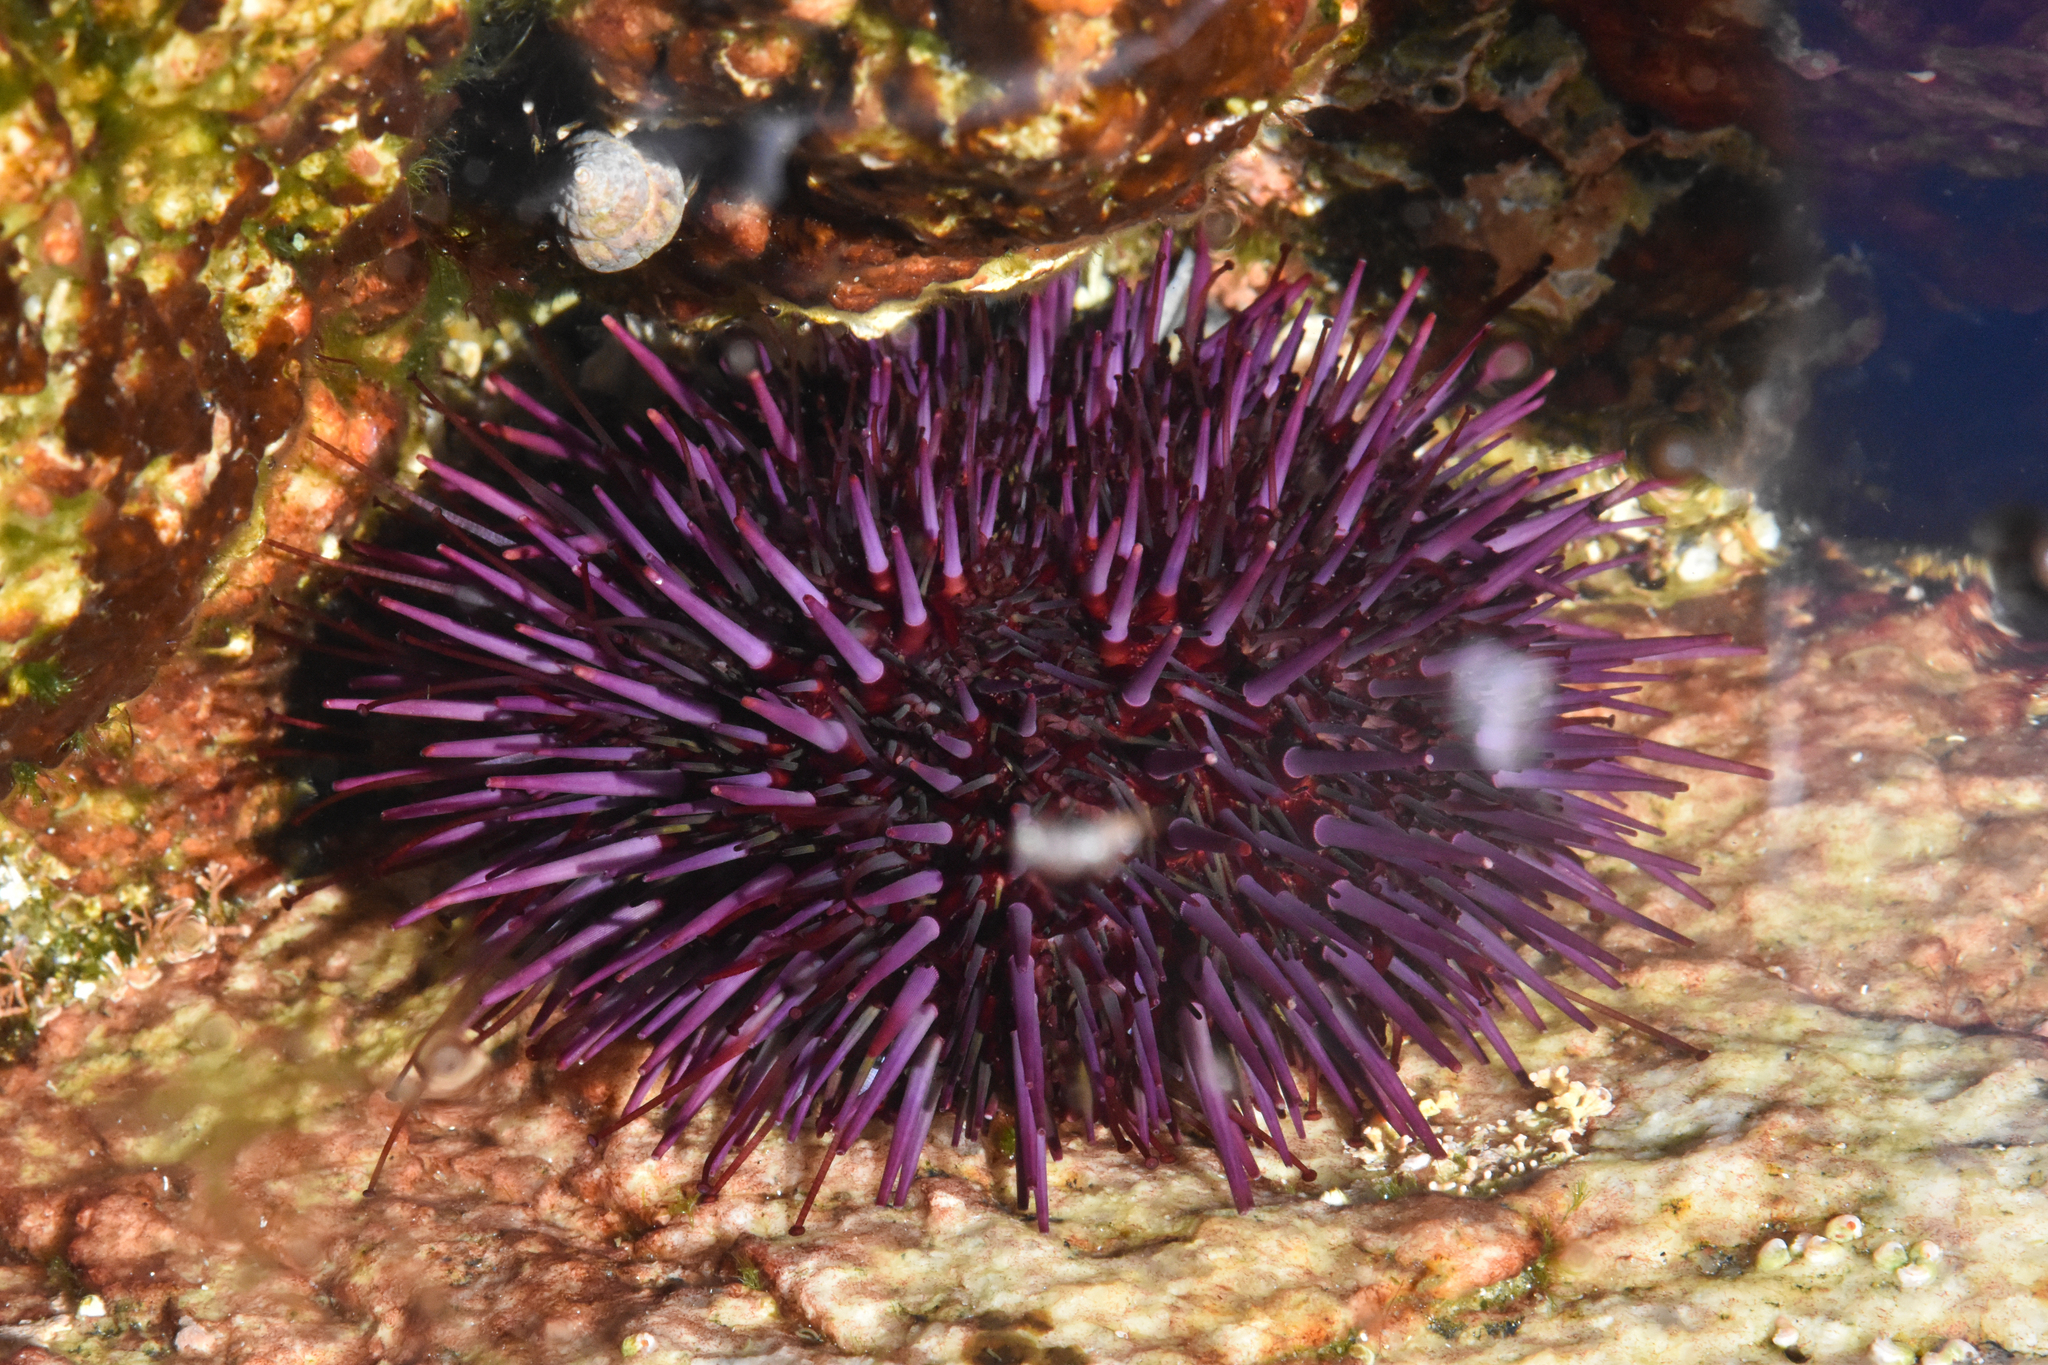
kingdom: Animalia
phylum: Echinodermata
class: Echinoidea
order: Camarodonta
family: Strongylocentrotidae
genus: Strongylocentrotus
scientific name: Strongylocentrotus purpuratus
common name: Purple sea urchin
